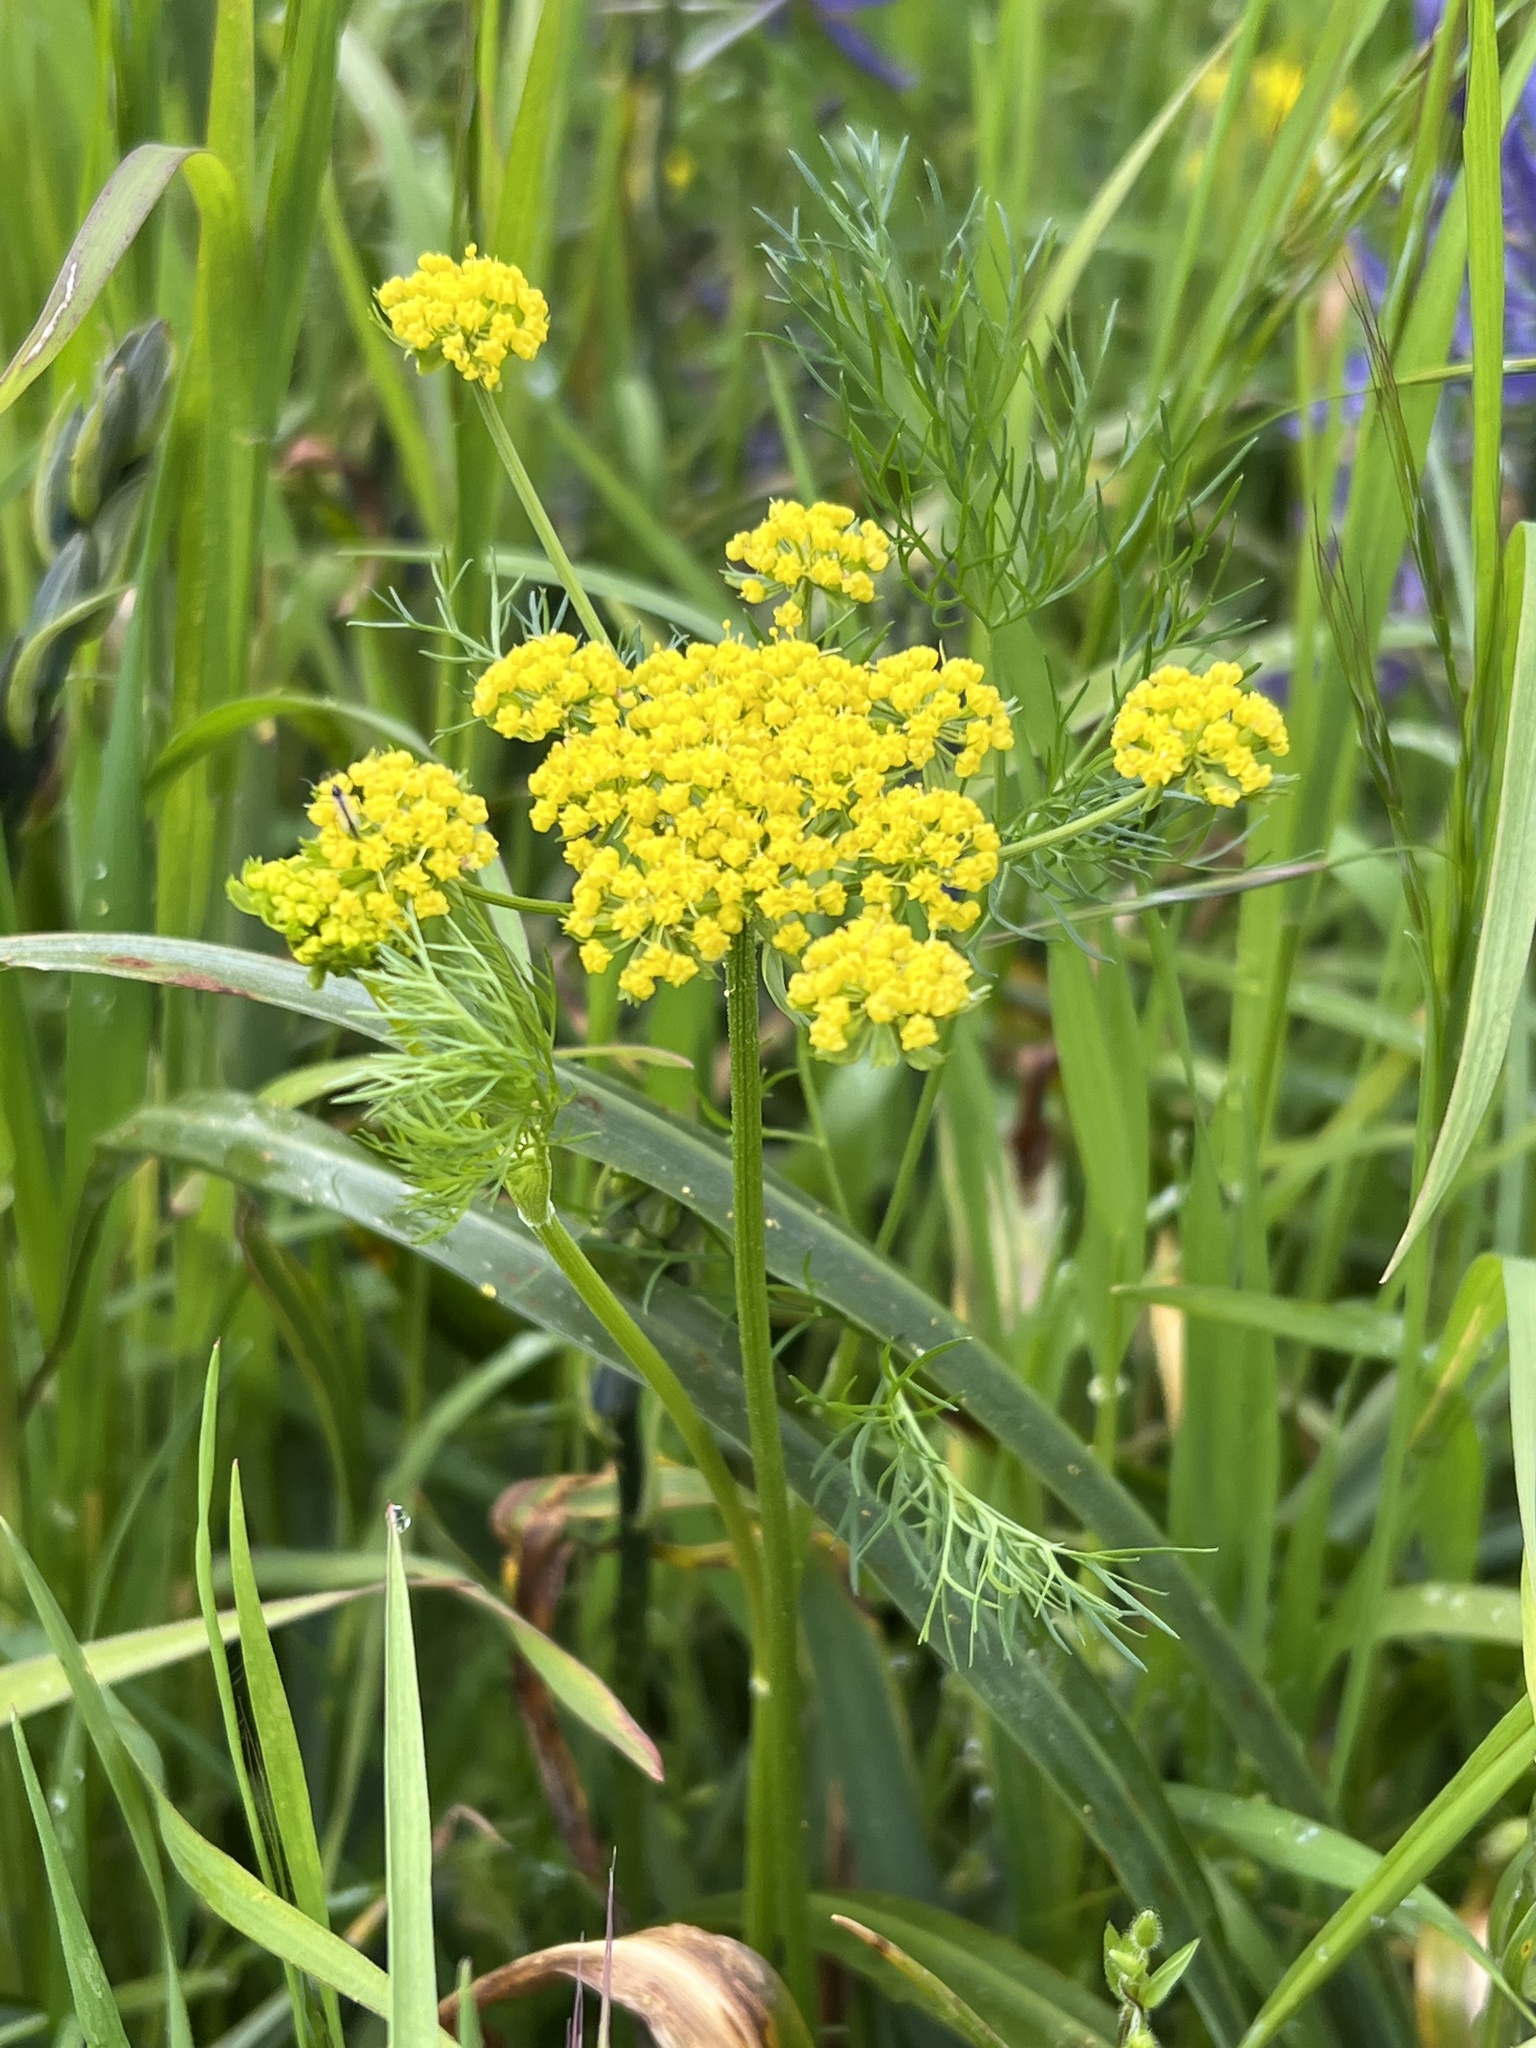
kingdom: Plantae
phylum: Tracheophyta
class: Magnoliopsida
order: Apiales
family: Apiaceae
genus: Lomatium
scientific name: Lomatium utriculatum
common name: Fine-leaf desert-parsley
